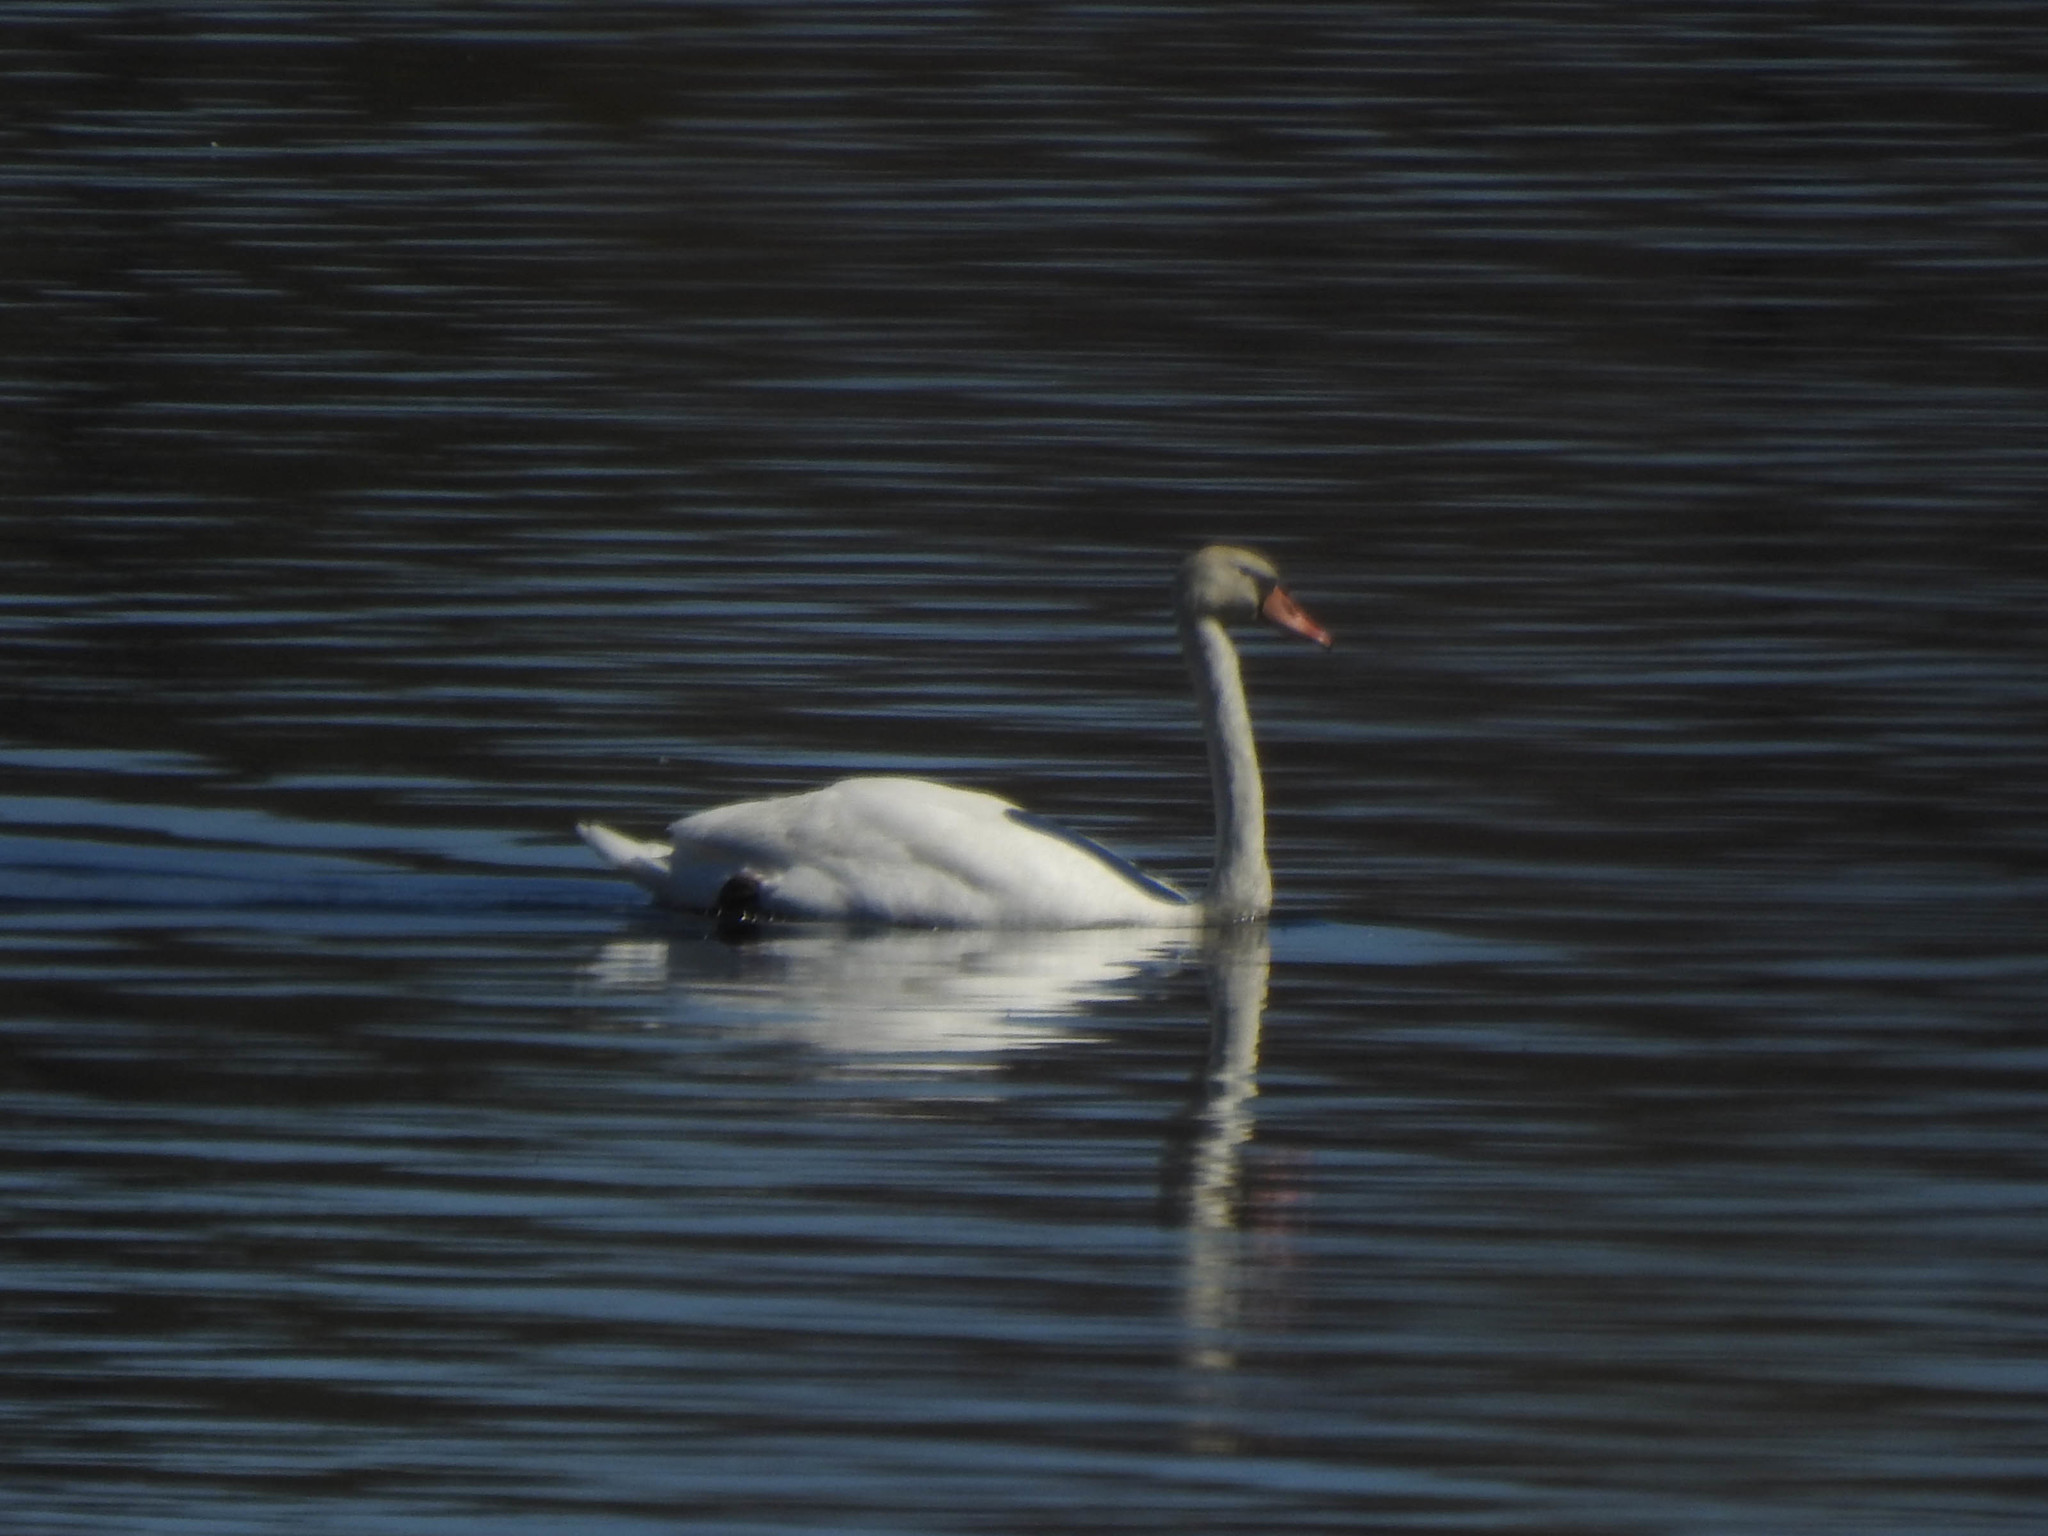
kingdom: Animalia
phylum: Chordata
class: Aves
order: Anseriformes
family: Anatidae
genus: Cygnus
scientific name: Cygnus olor
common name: Mute swan
